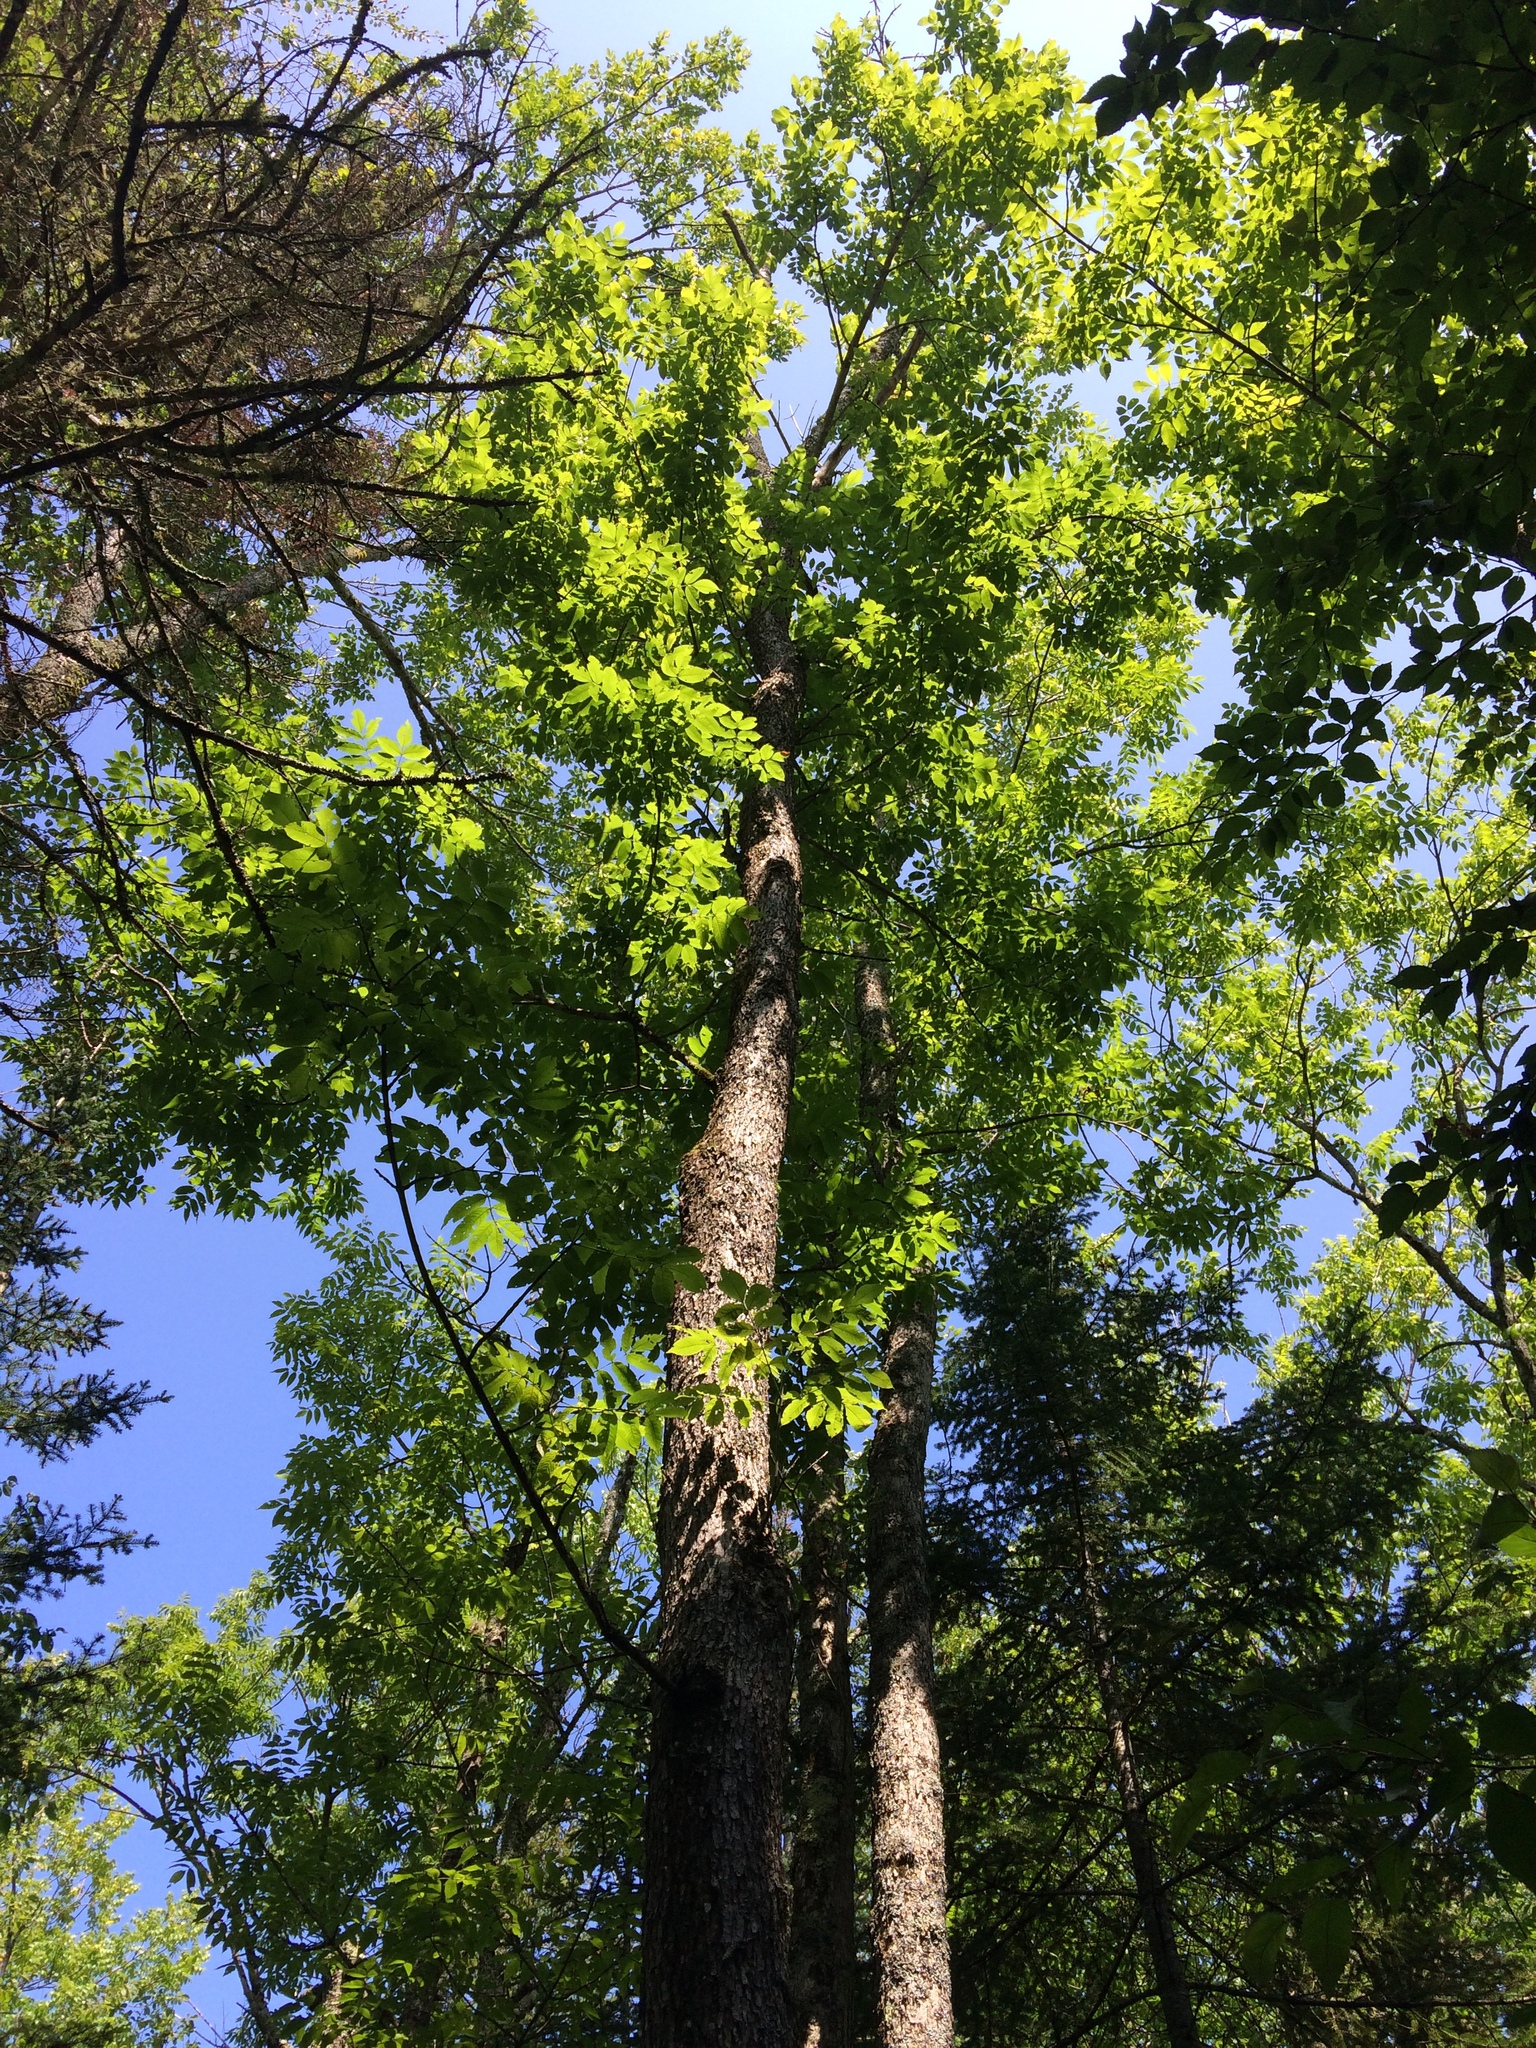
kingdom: Plantae
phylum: Tracheophyta
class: Magnoliopsida
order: Lamiales
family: Oleaceae
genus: Fraxinus
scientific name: Fraxinus nigra
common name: Black ash
